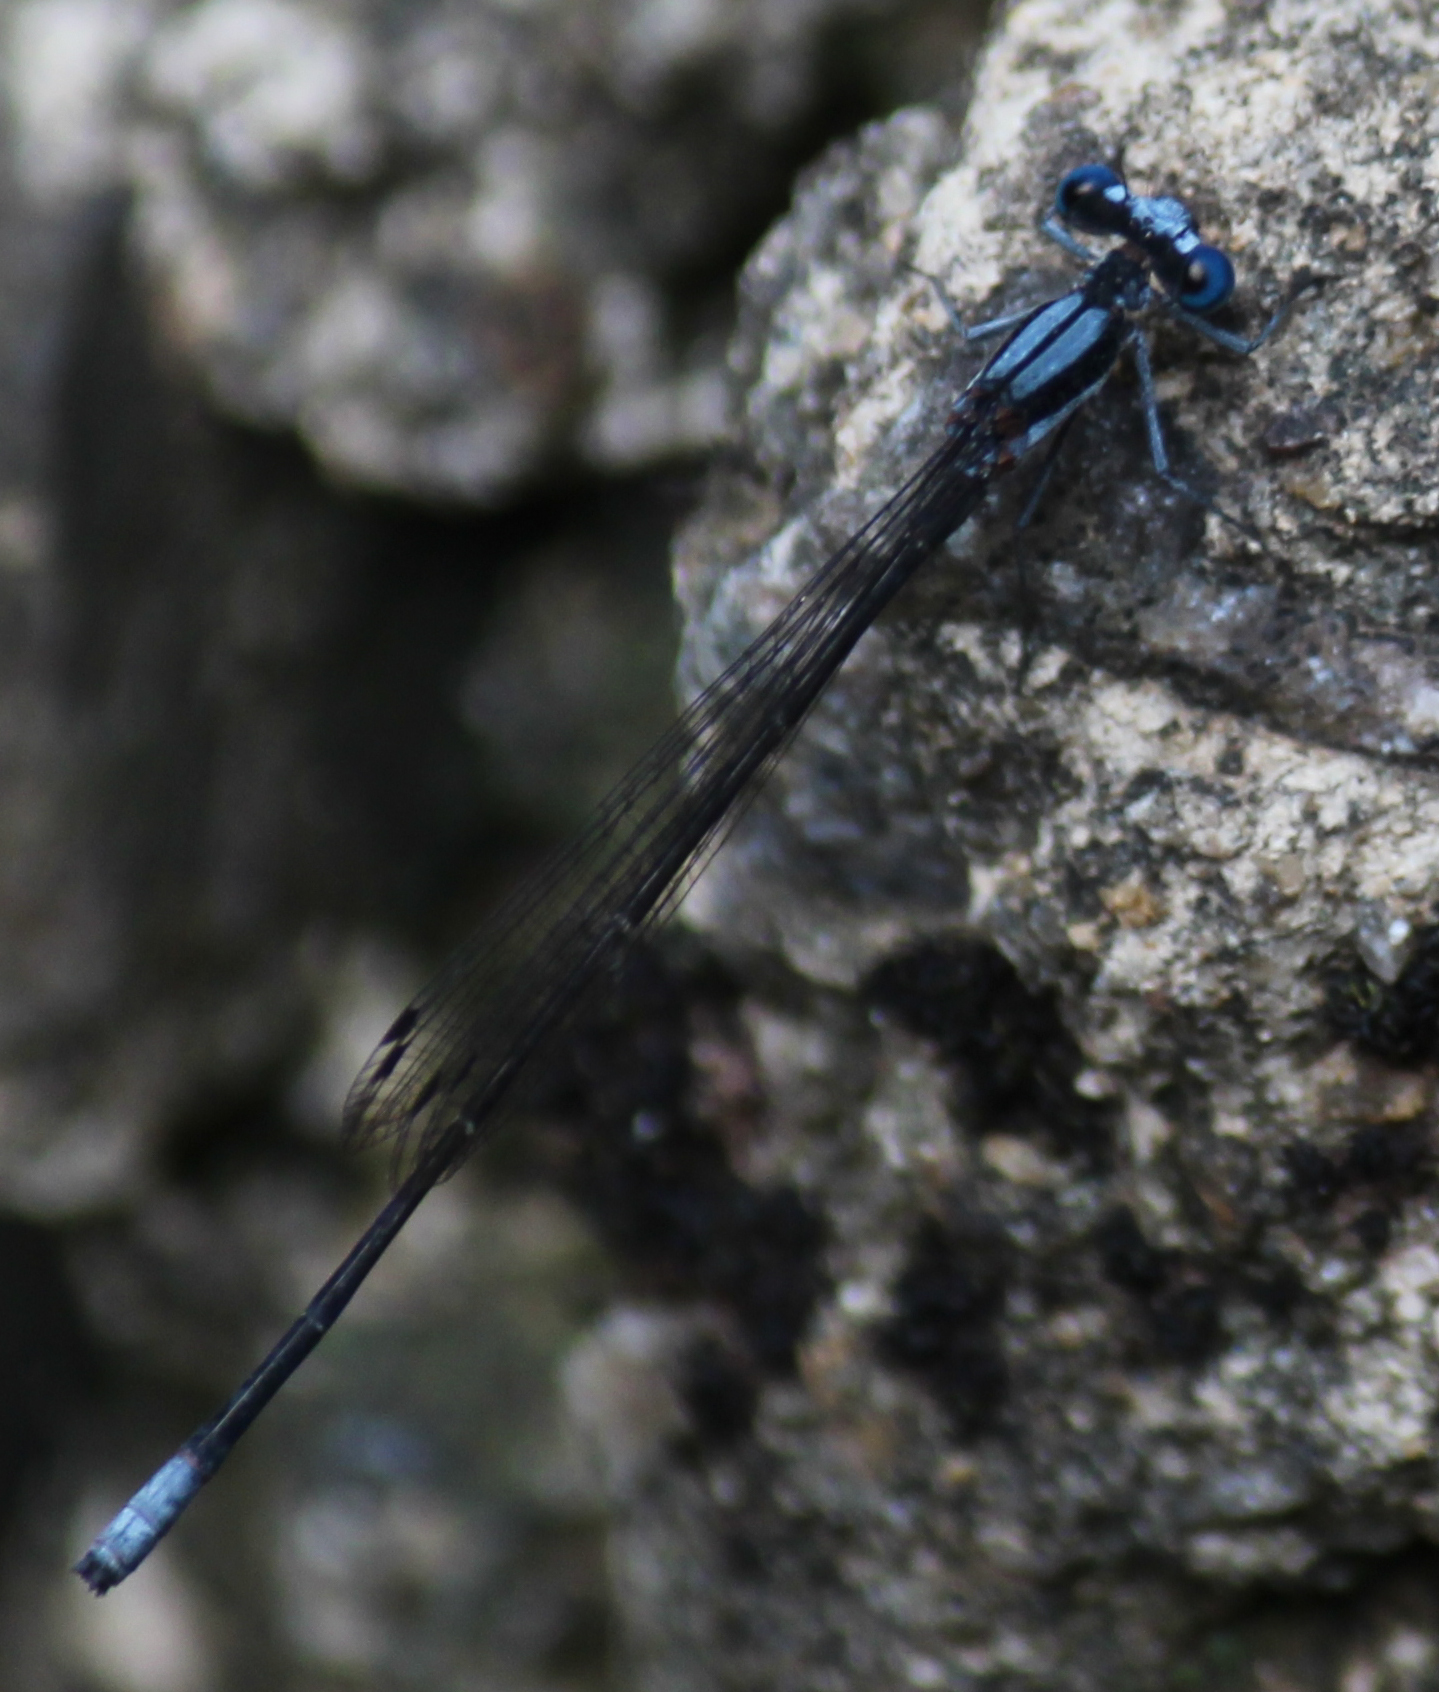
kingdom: Animalia
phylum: Arthropoda
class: Insecta
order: Odonata
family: Platycnemididae
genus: Elattoneura
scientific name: Elattoneura glauca
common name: Common threadtail
